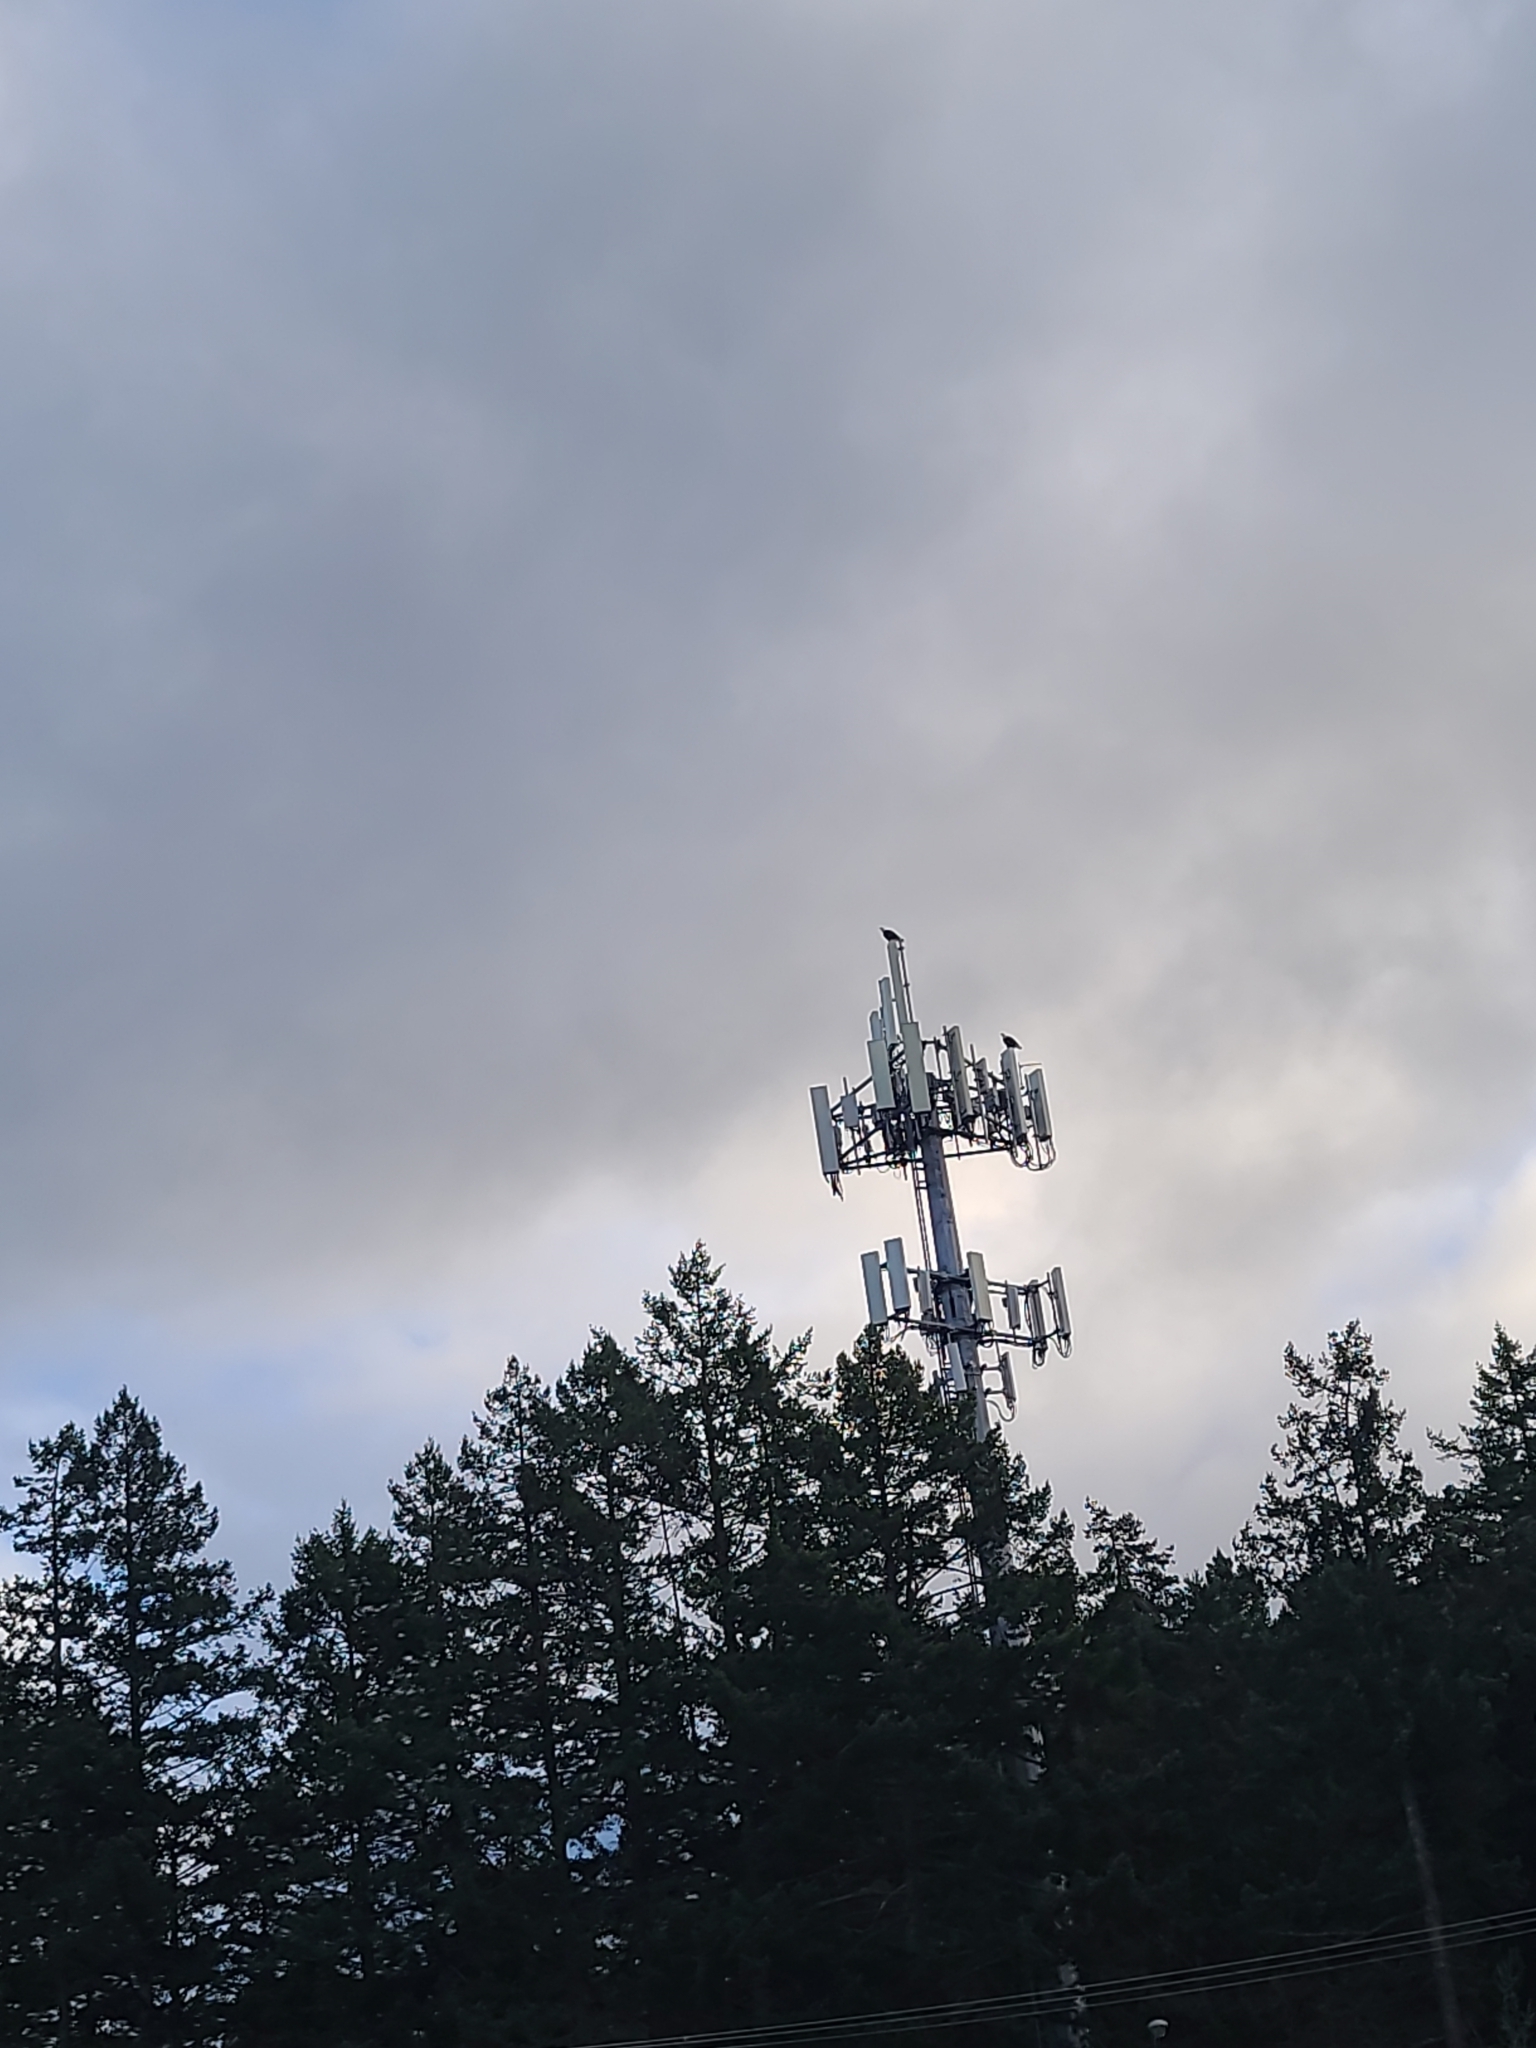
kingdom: Animalia
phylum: Chordata
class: Aves
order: Accipitriformes
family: Accipitridae
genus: Haliaeetus
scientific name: Haliaeetus leucocephalus
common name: Bald eagle
